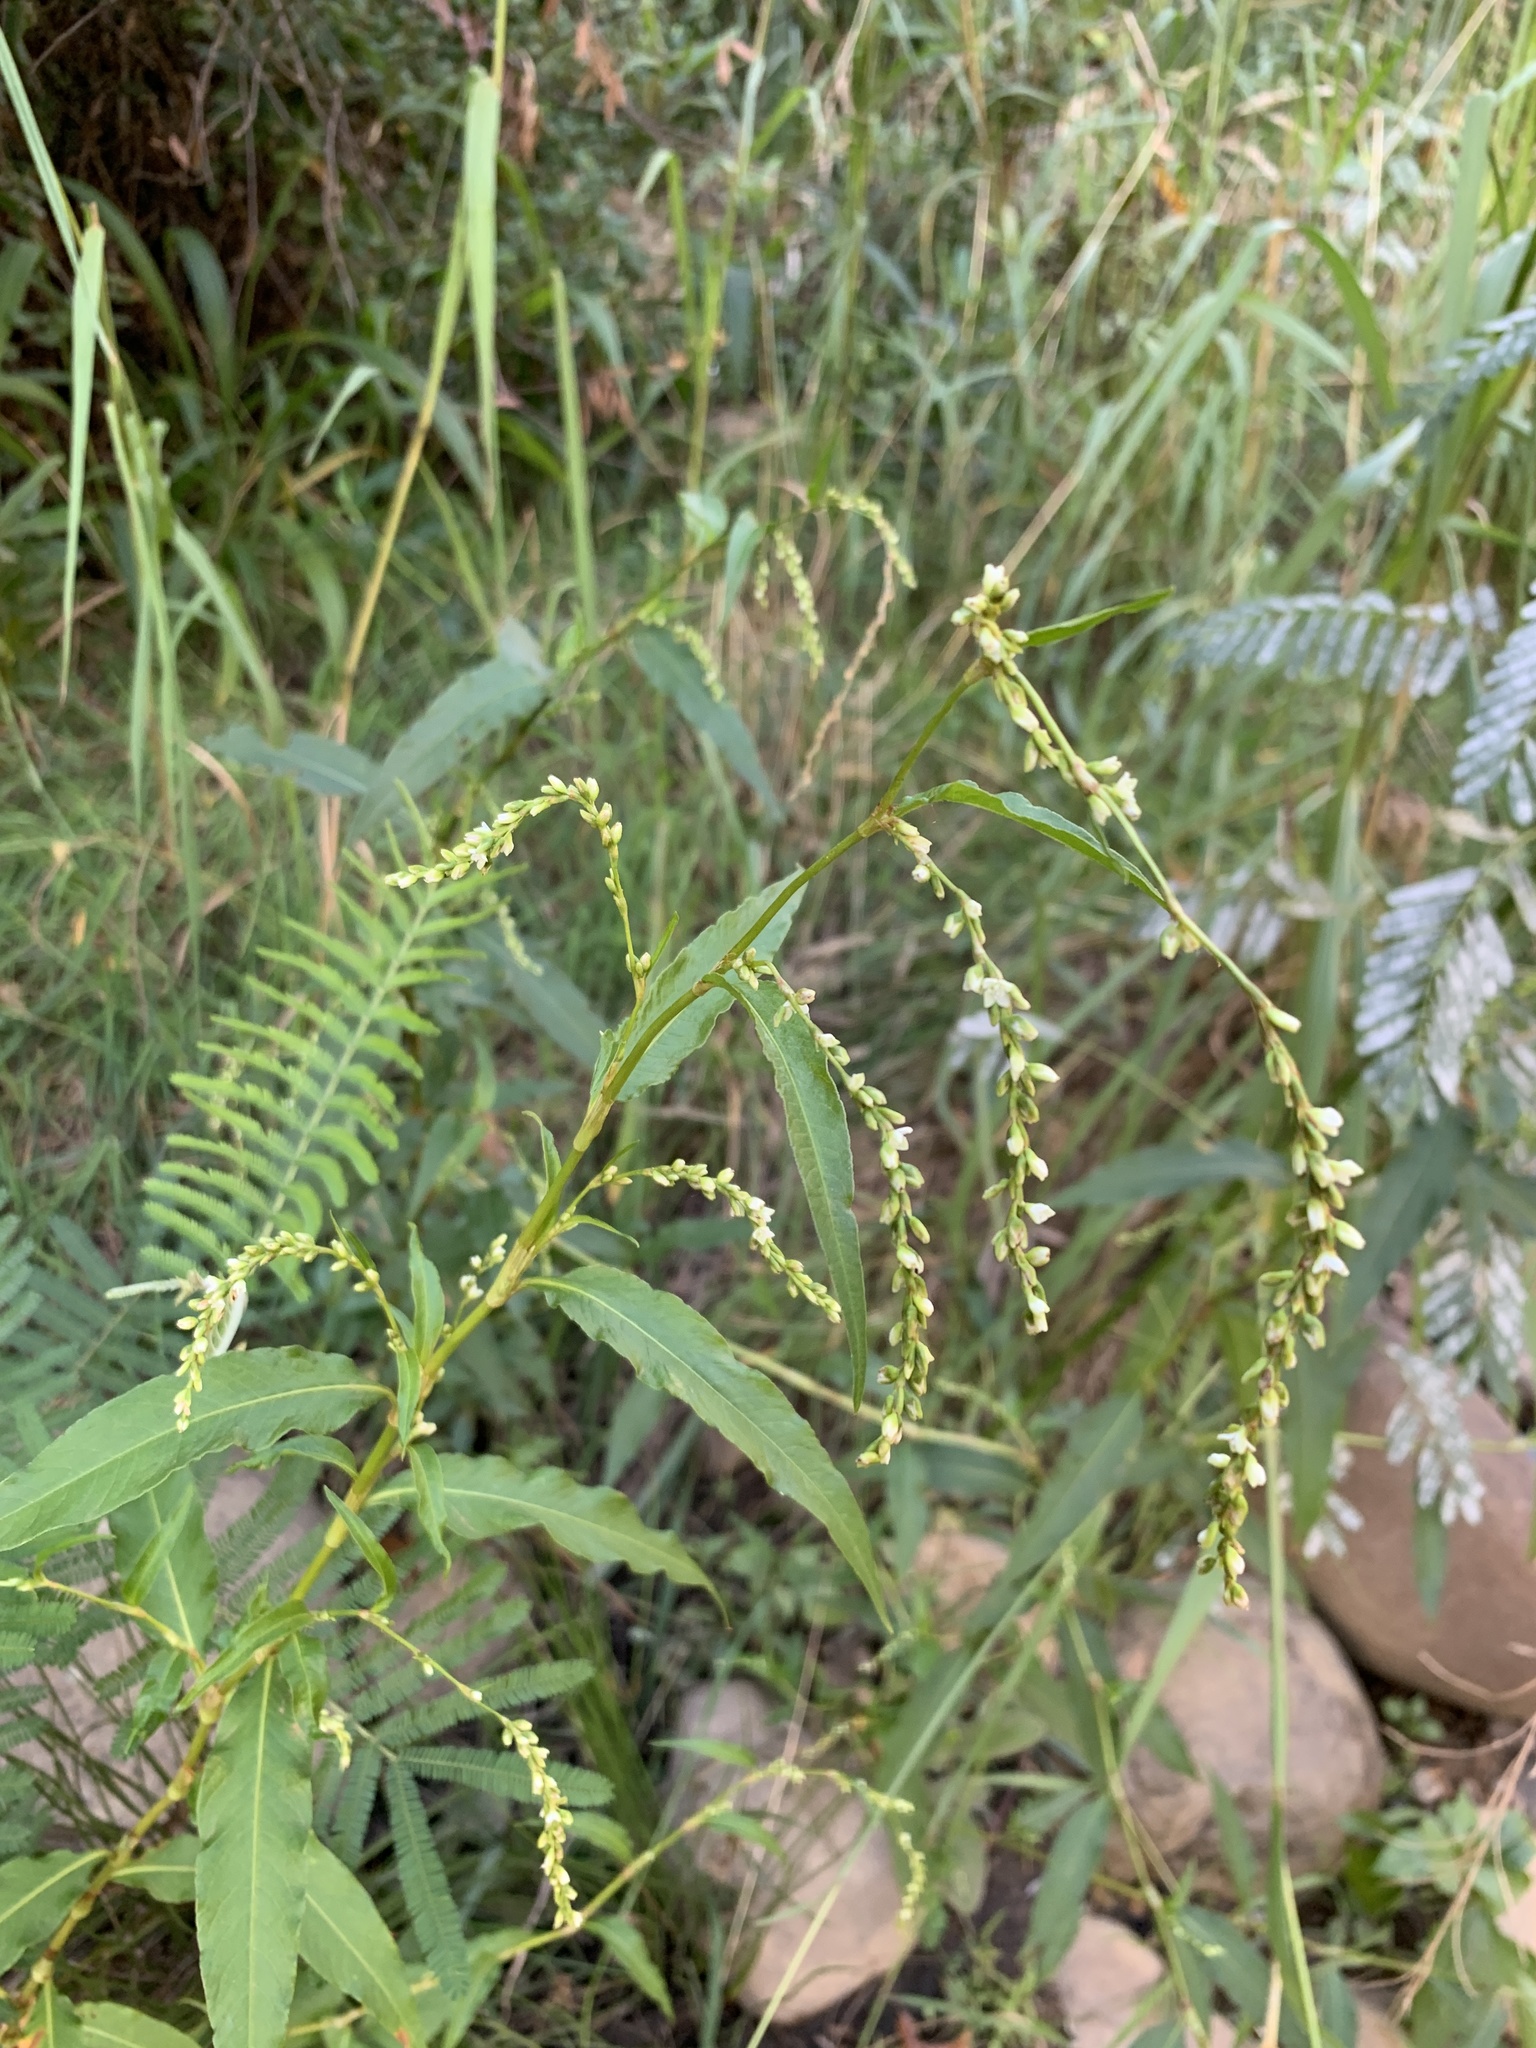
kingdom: Plantae
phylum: Tracheophyta
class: Magnoliopsida
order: Caryophyllales
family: Polygonaceae
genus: Persicaria
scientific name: Persicaria hydropiper
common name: Water-pepper
